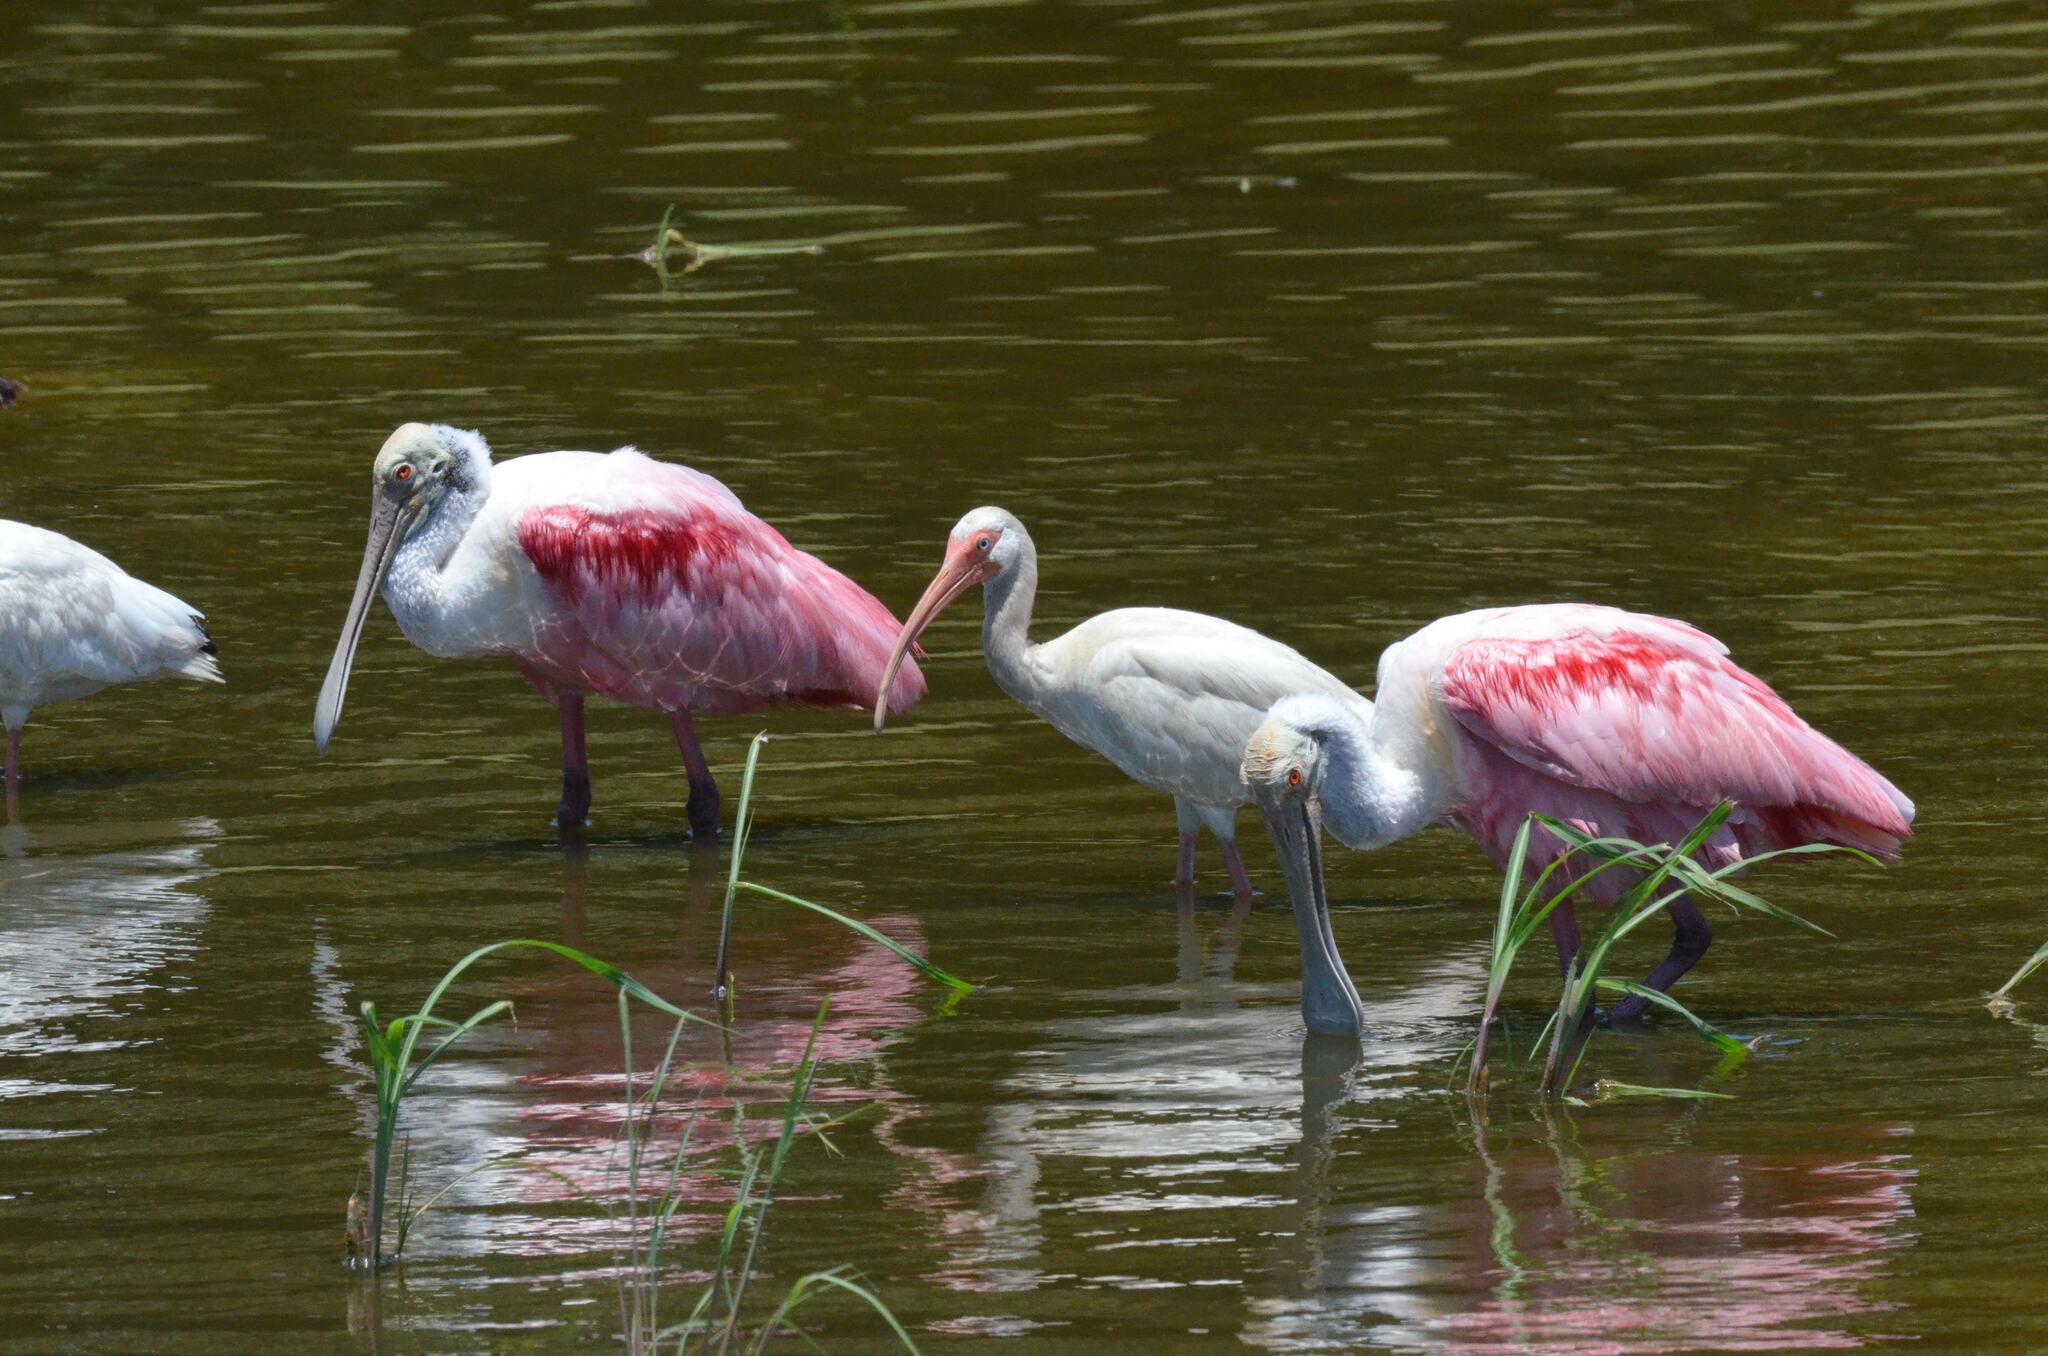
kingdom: Animalia
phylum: Chordata
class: Aves
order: Pelecaniformes
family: Threskiornithidae
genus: Eudocimus
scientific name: Eudocimus albus
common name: White ibis
